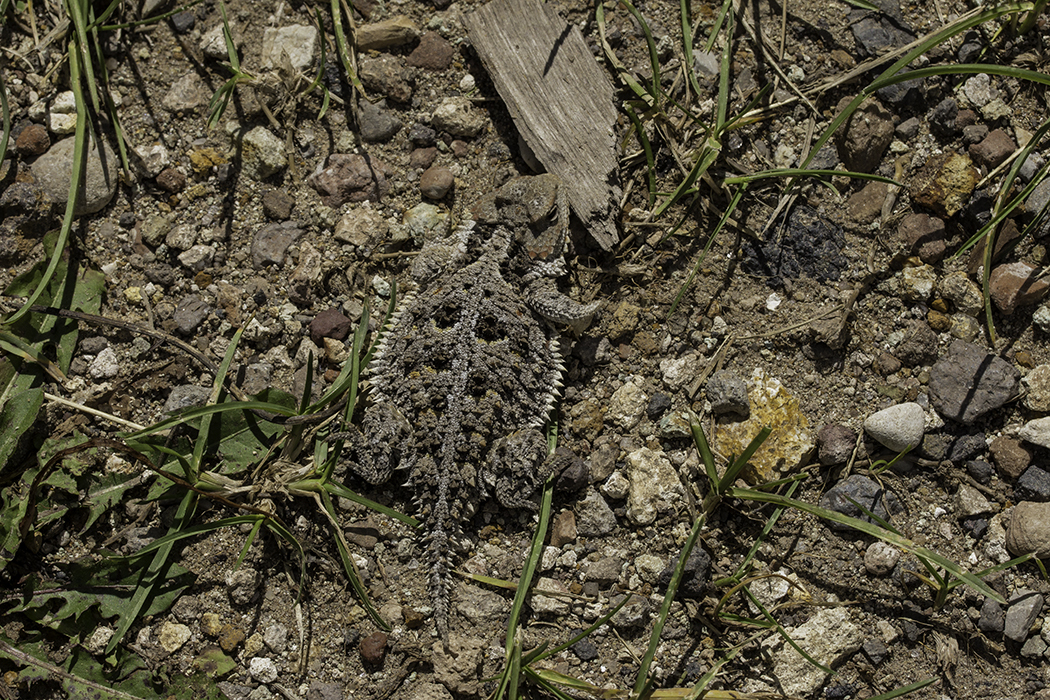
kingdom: Animalia
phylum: Chordata
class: Squamata
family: Phrynosomatidae
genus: Phrynosoma
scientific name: Phrynosoma hernandesi
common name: Greater short-horned lizard
